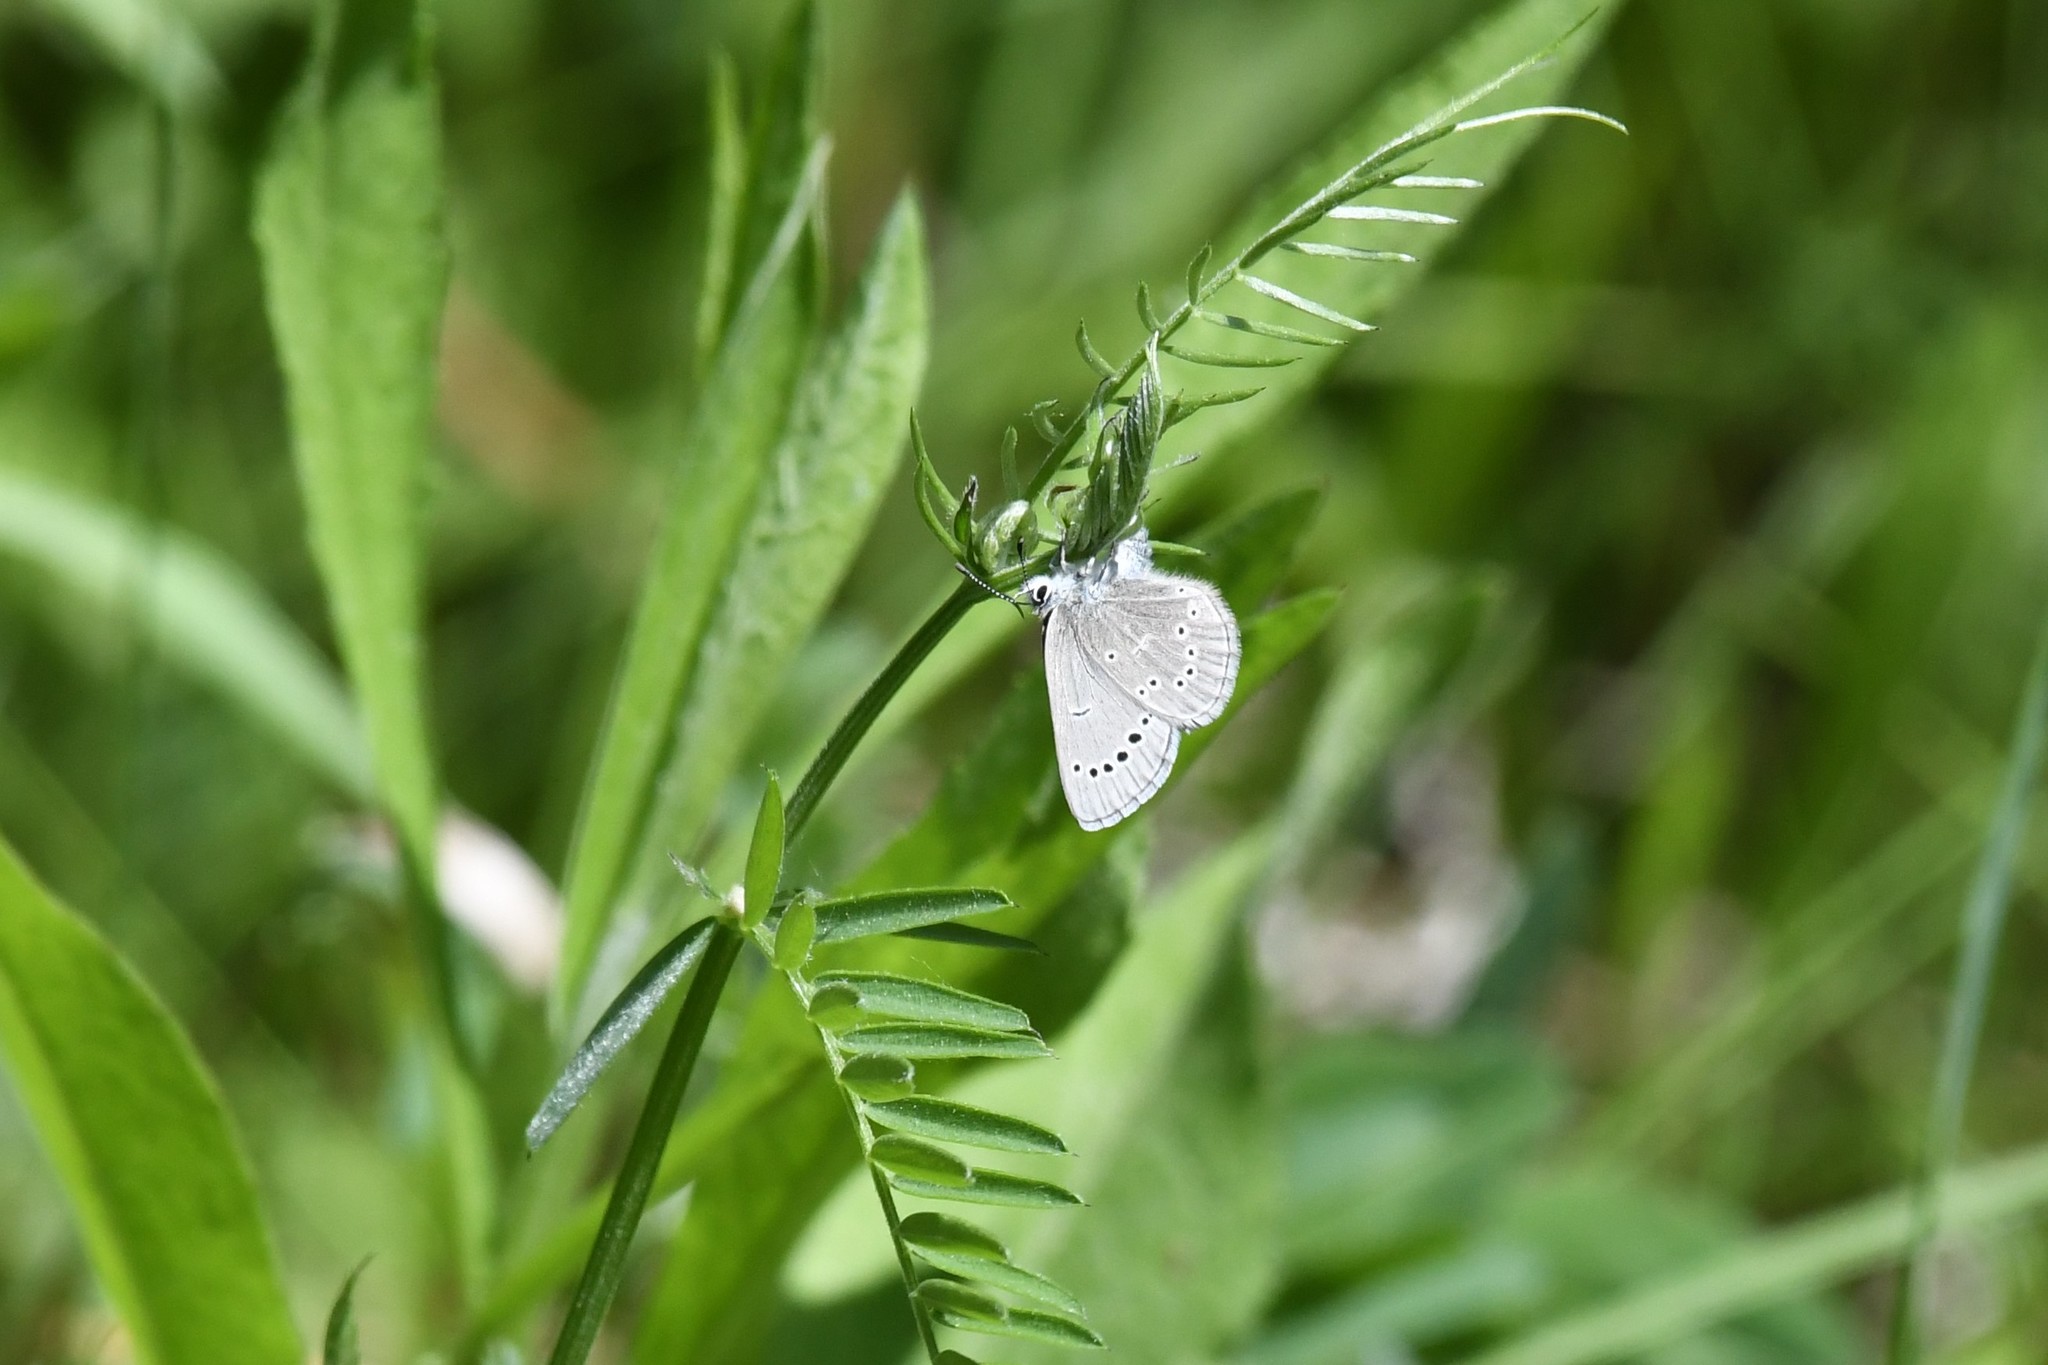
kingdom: Animalia
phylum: Arthropoda
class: Insecta
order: Lepidoptera
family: Lycaenidae
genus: Glaucopsyche
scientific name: Glaucopsyche lygdamus
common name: Silvery blue
